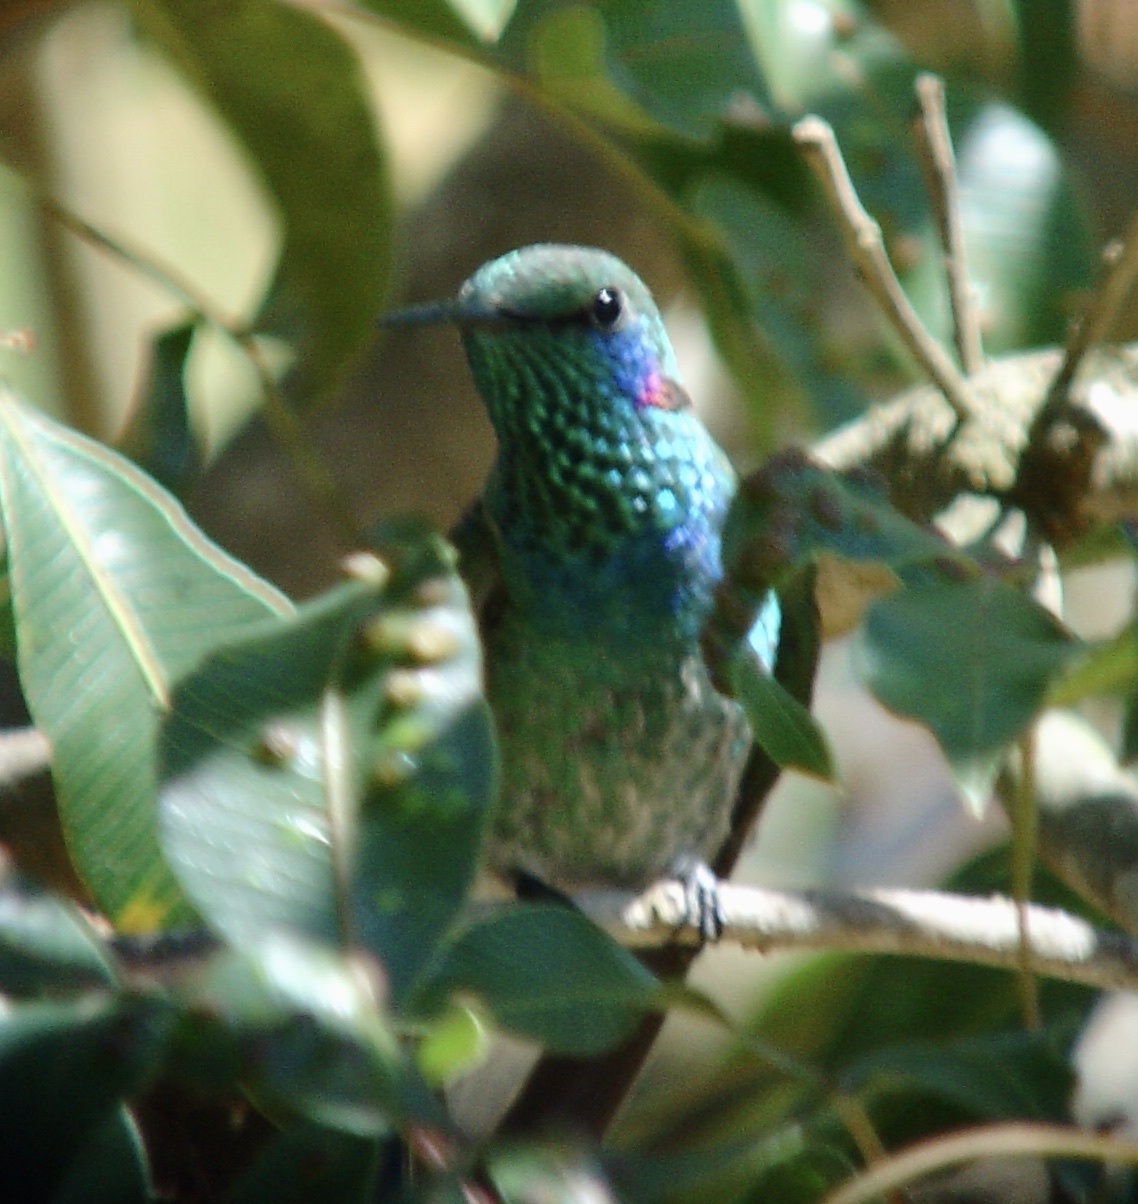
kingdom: Animalia
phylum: Chordata
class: Aves
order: Apodiformes
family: Trochilidae
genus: Colibri
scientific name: Colibri serrirostris
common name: White-vented violetear
